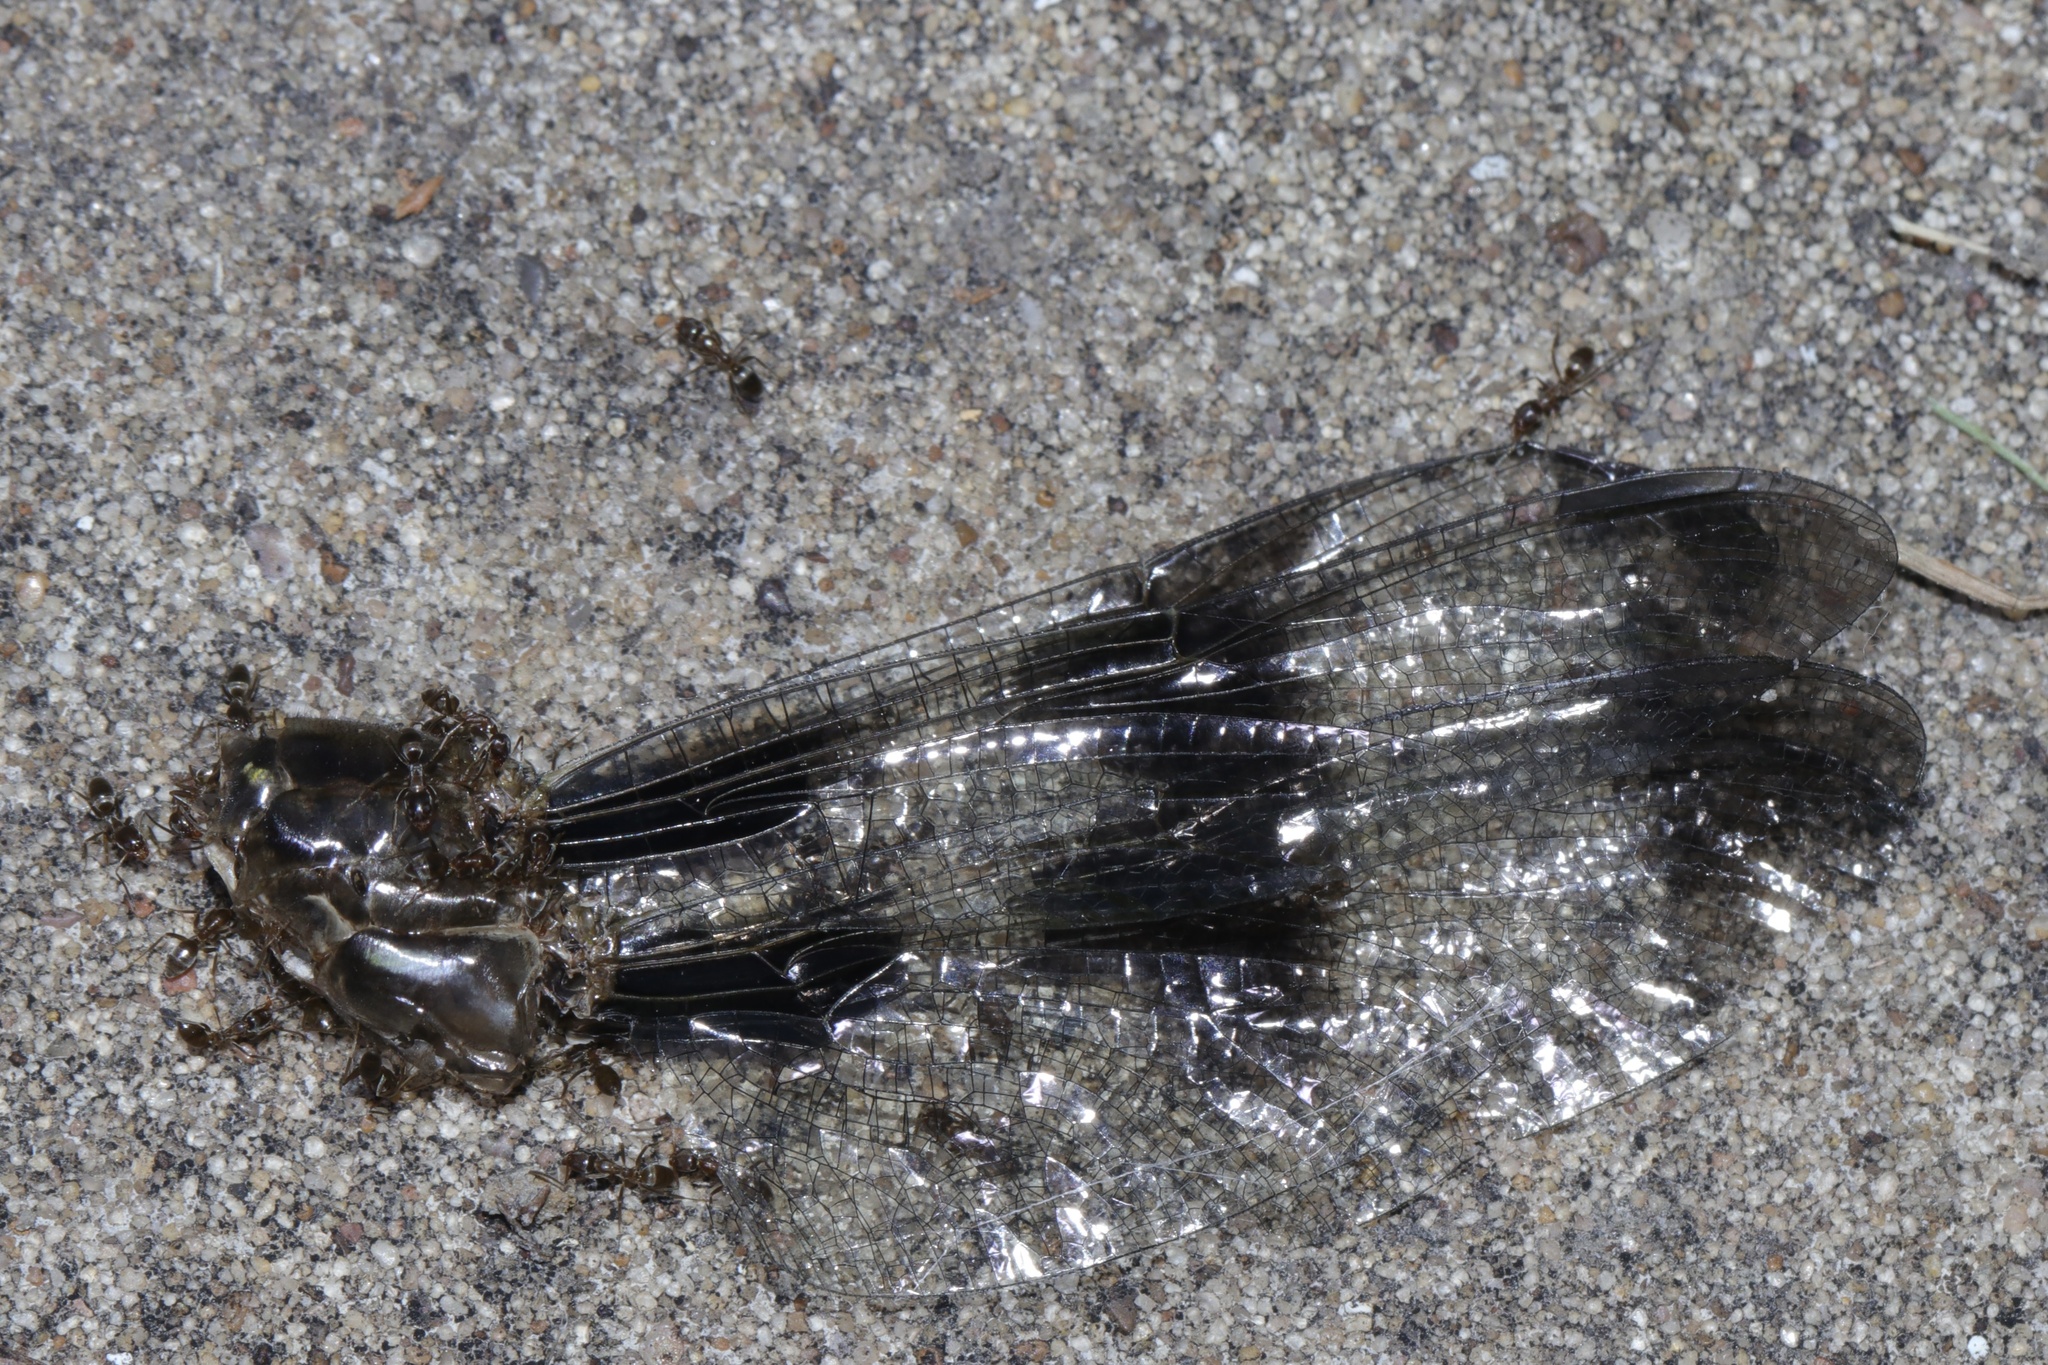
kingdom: Animalia
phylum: Arthropoda
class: Insecta
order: Hymenoptera
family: Formicidae
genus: Linepithema
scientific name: Linepithema humile
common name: Argentine ant
